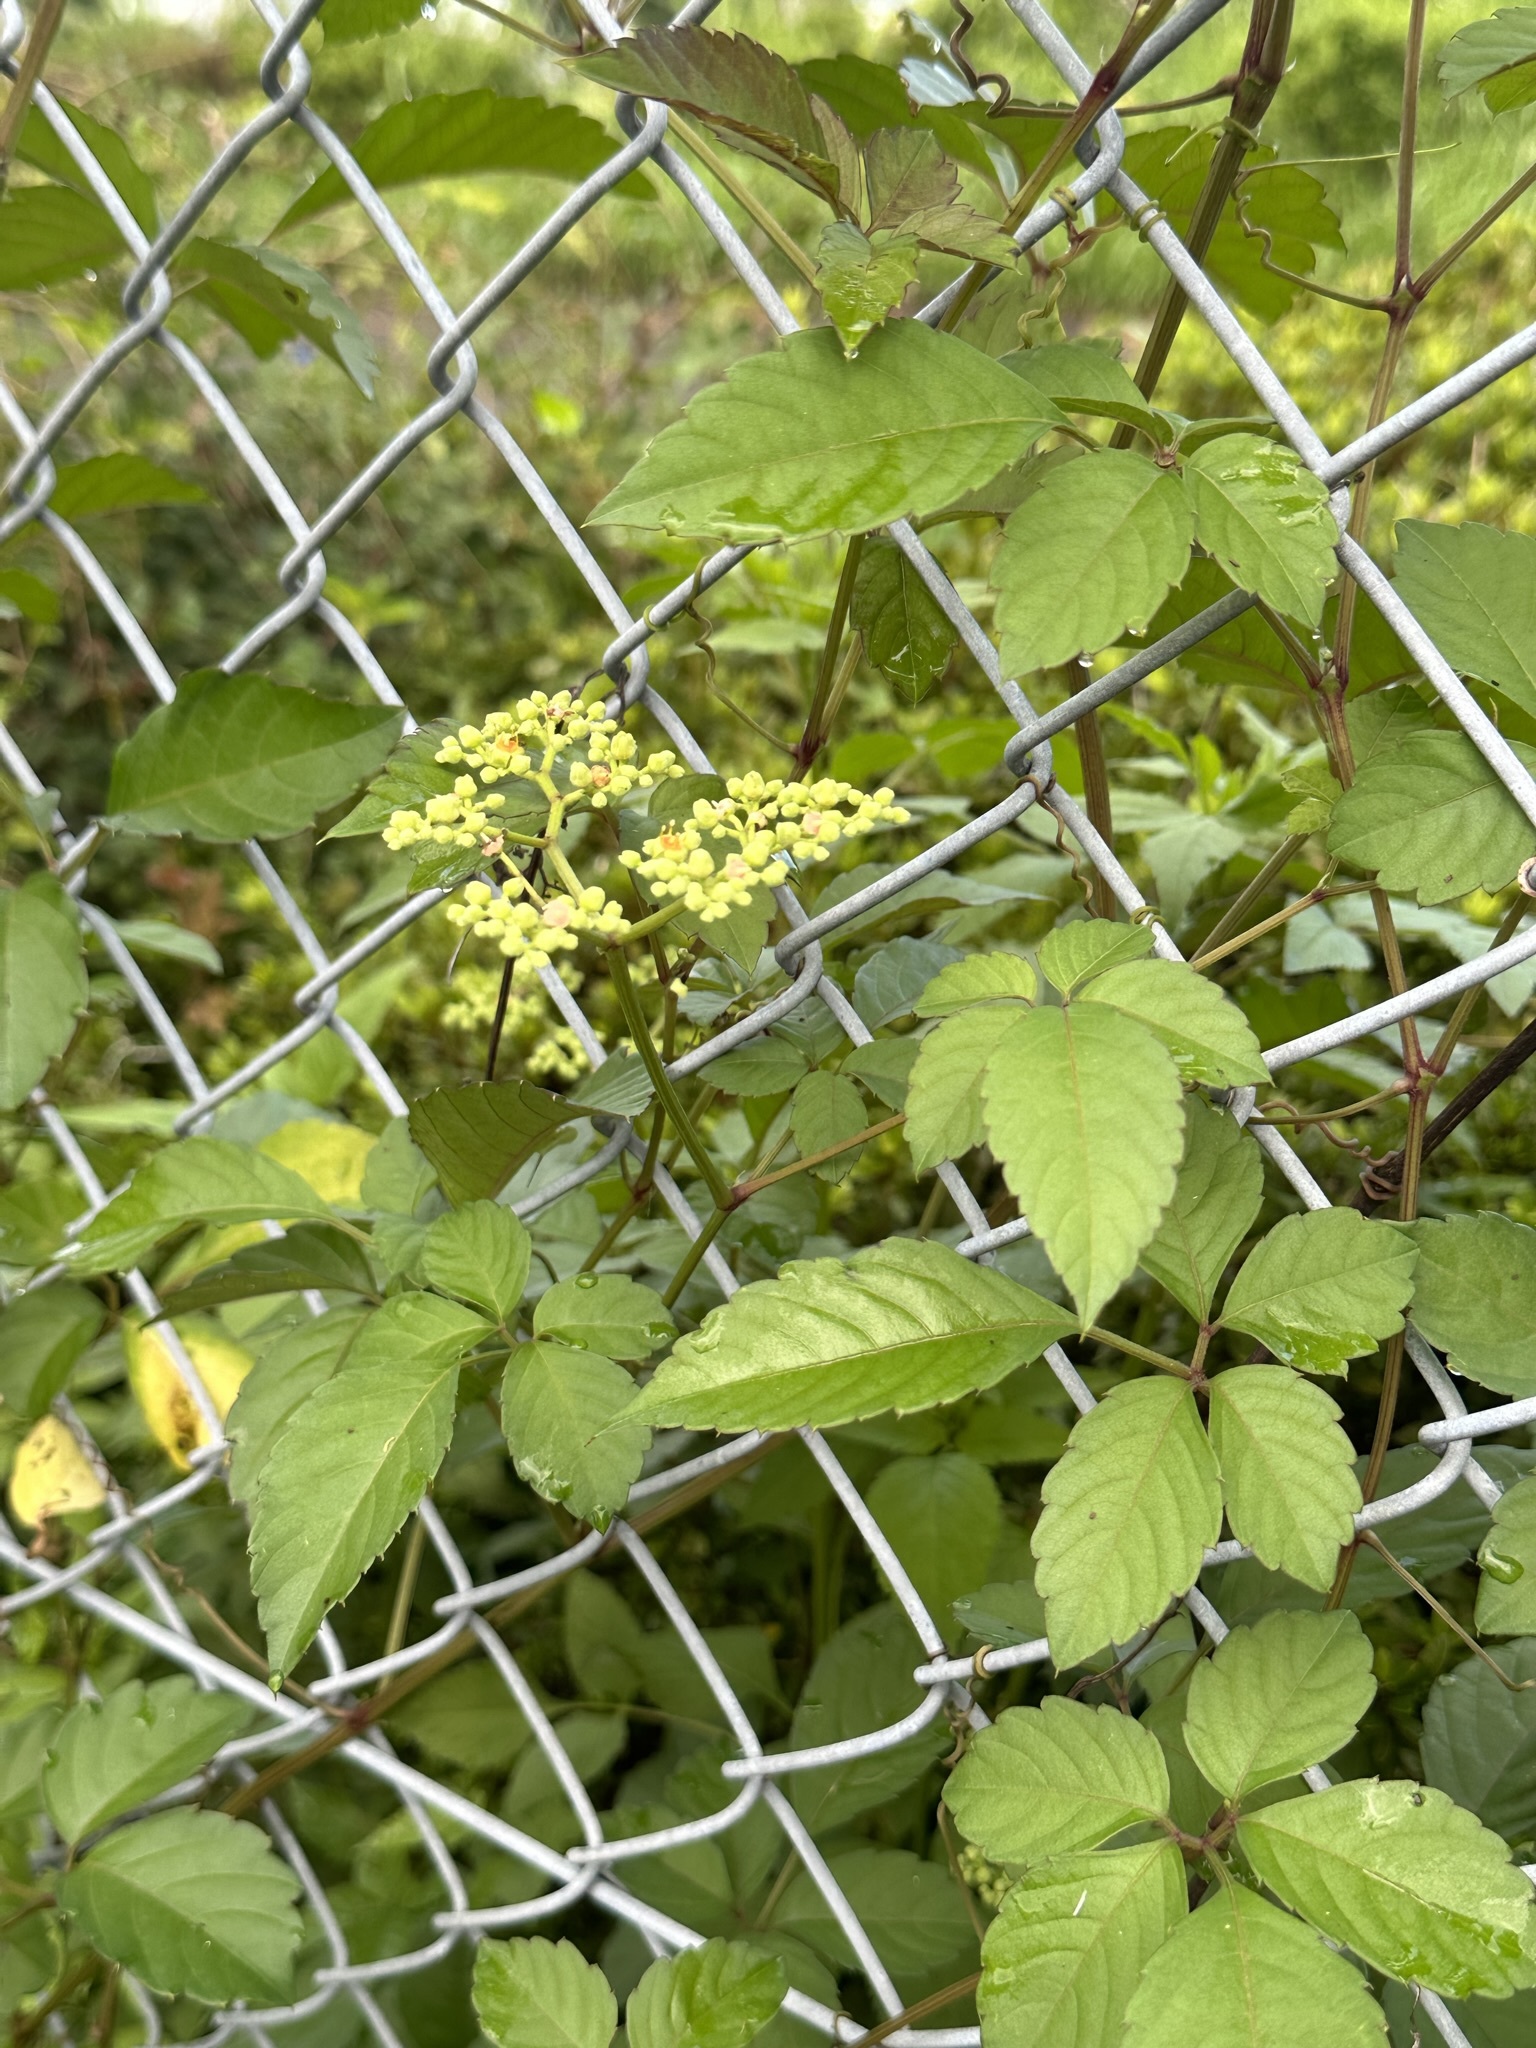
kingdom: Plantae
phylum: Tracheophyta
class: Magnoliopsida
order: Vitales
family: Vitaceae
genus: Causonis
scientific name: Causonis japonica
